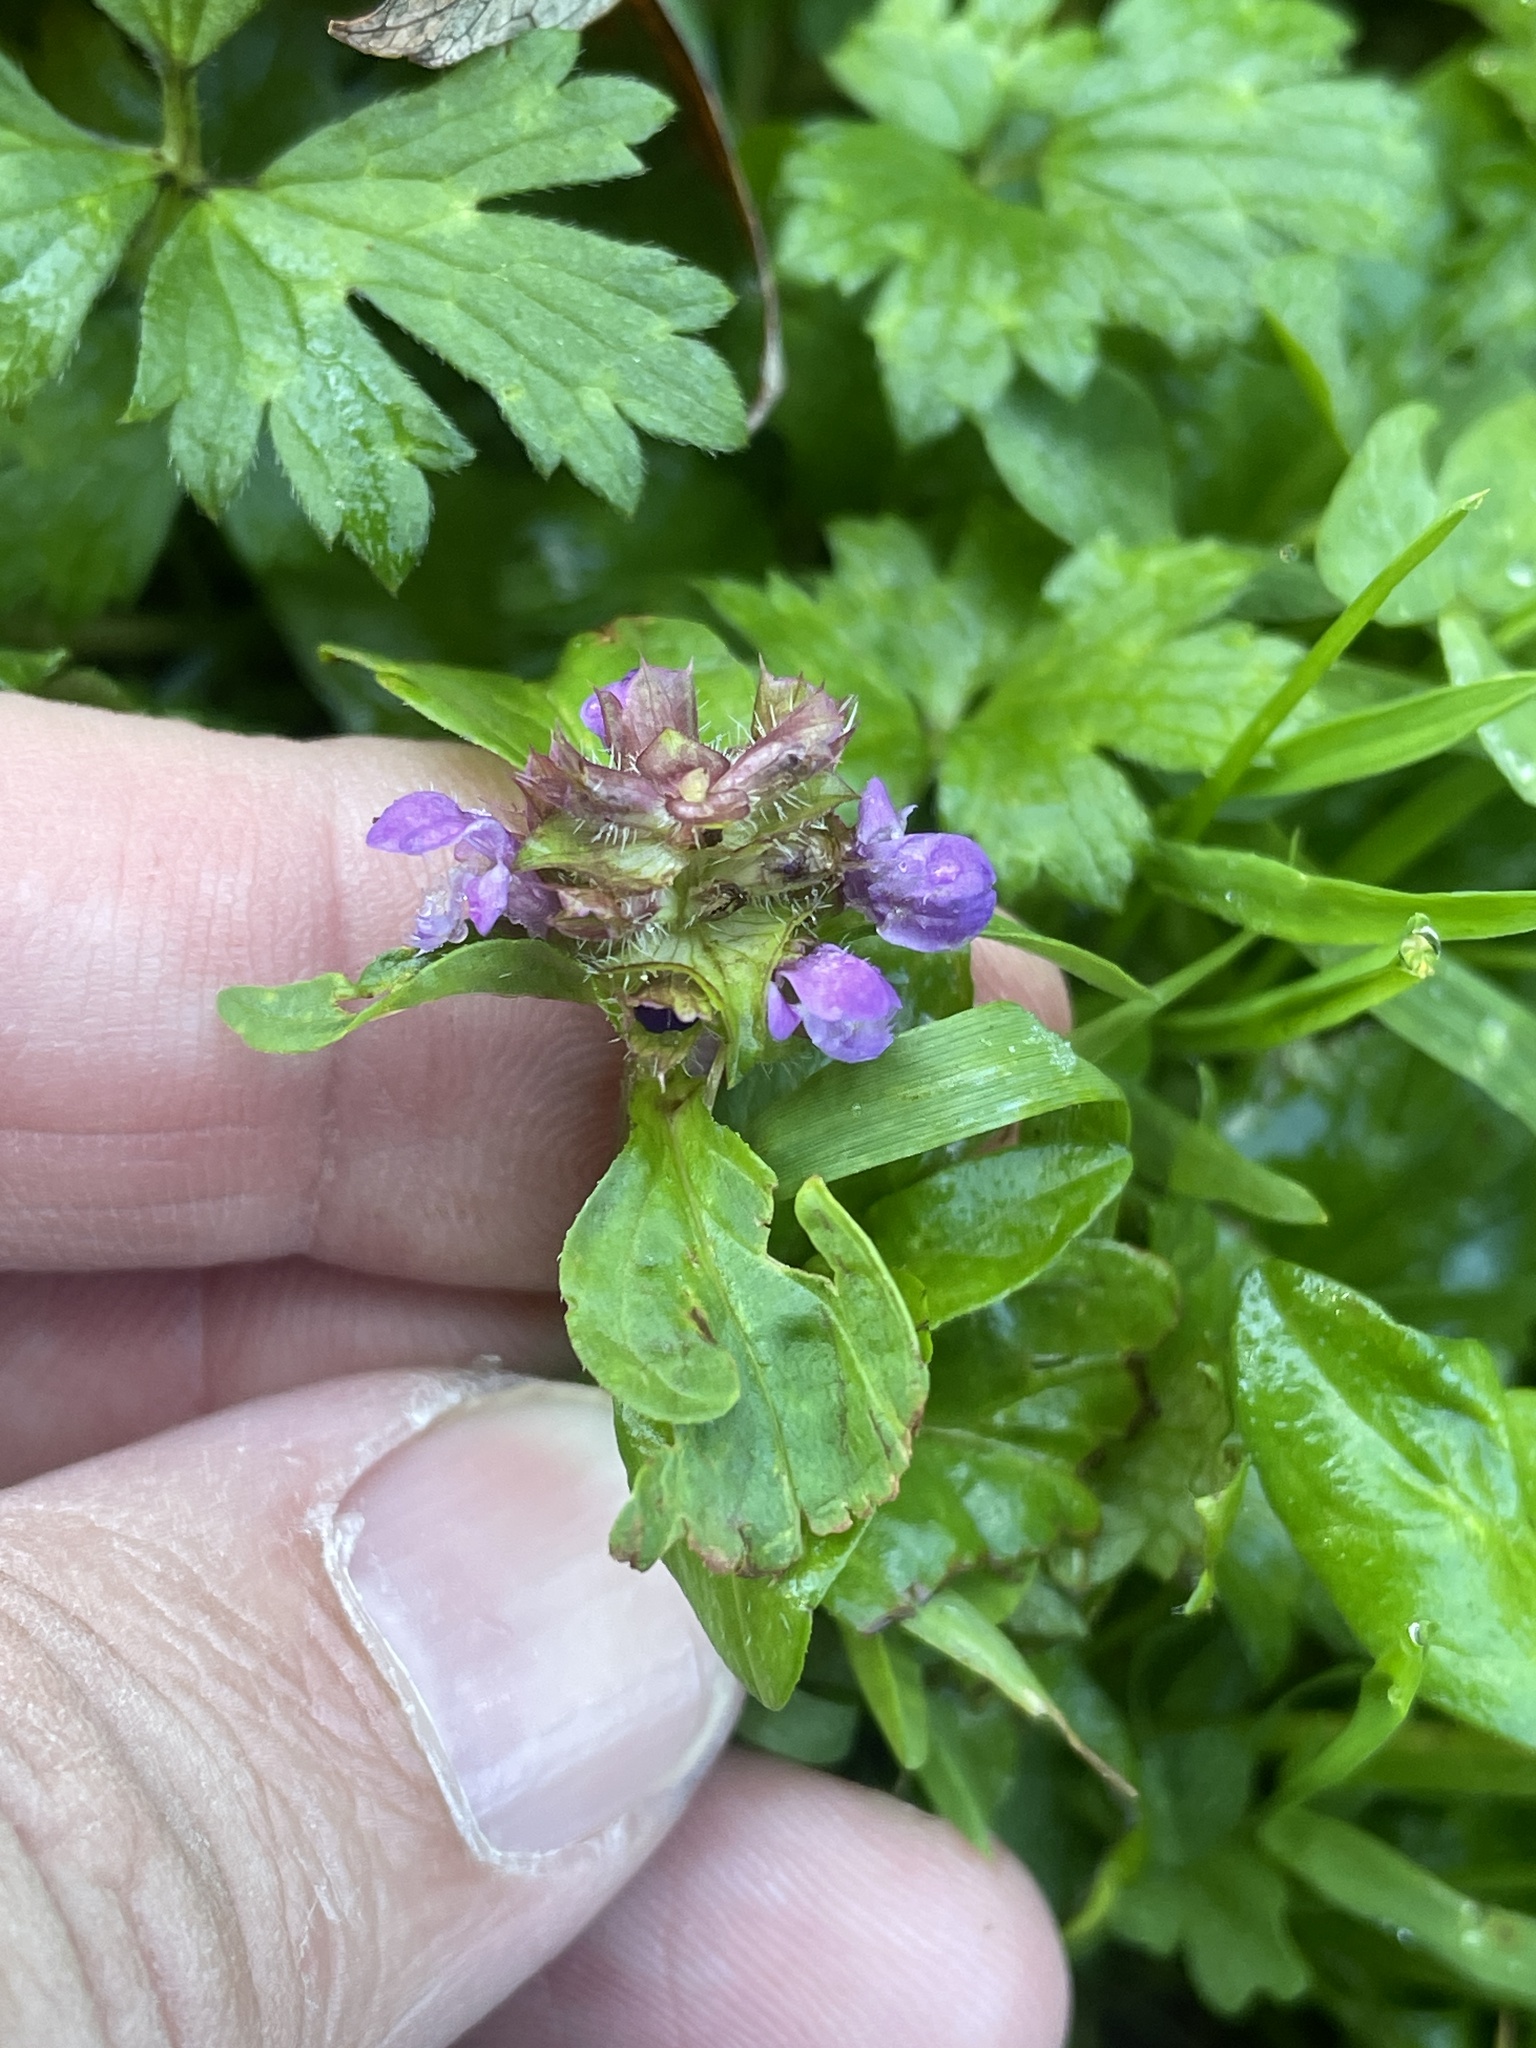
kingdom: Plantae
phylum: Tracheophyta
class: Magnoliopsida
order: Lamiales
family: Lamiaceae
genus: Prunella
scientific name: Prunella vulgaris
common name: Heal-all
